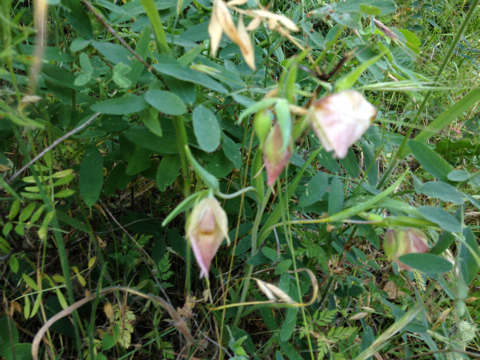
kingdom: Plantae
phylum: Tracheophyta
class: Liliopsida
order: Liliales
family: Liliaceae
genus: Calochortus
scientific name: Calochortus albus
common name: Fairy-lantern
